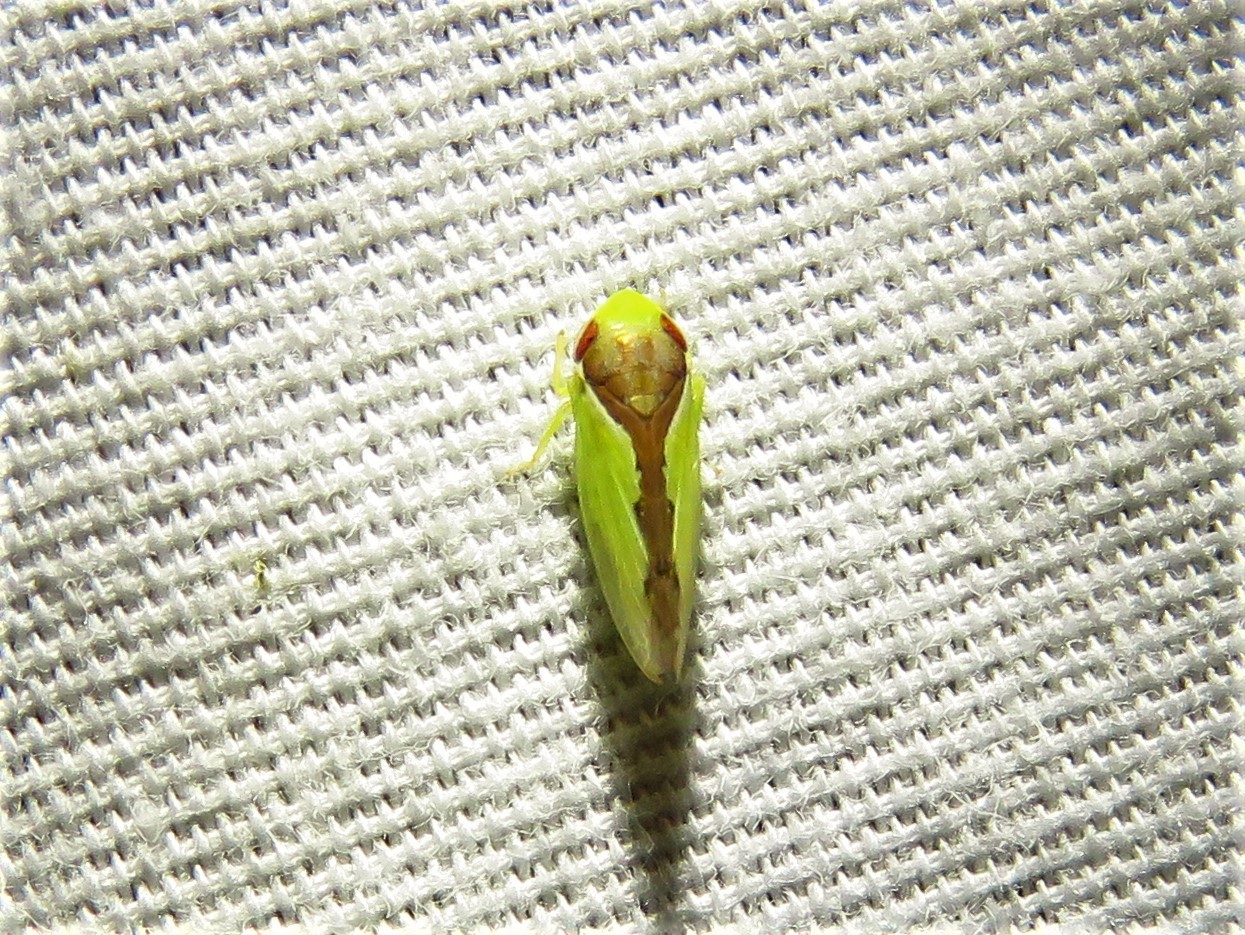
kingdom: Animalia
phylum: Arthropoda
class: Insecta
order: Hemiptera
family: Cicadellidae
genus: Omansobara ing
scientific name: Omansobara ing Omansobara palliolata
